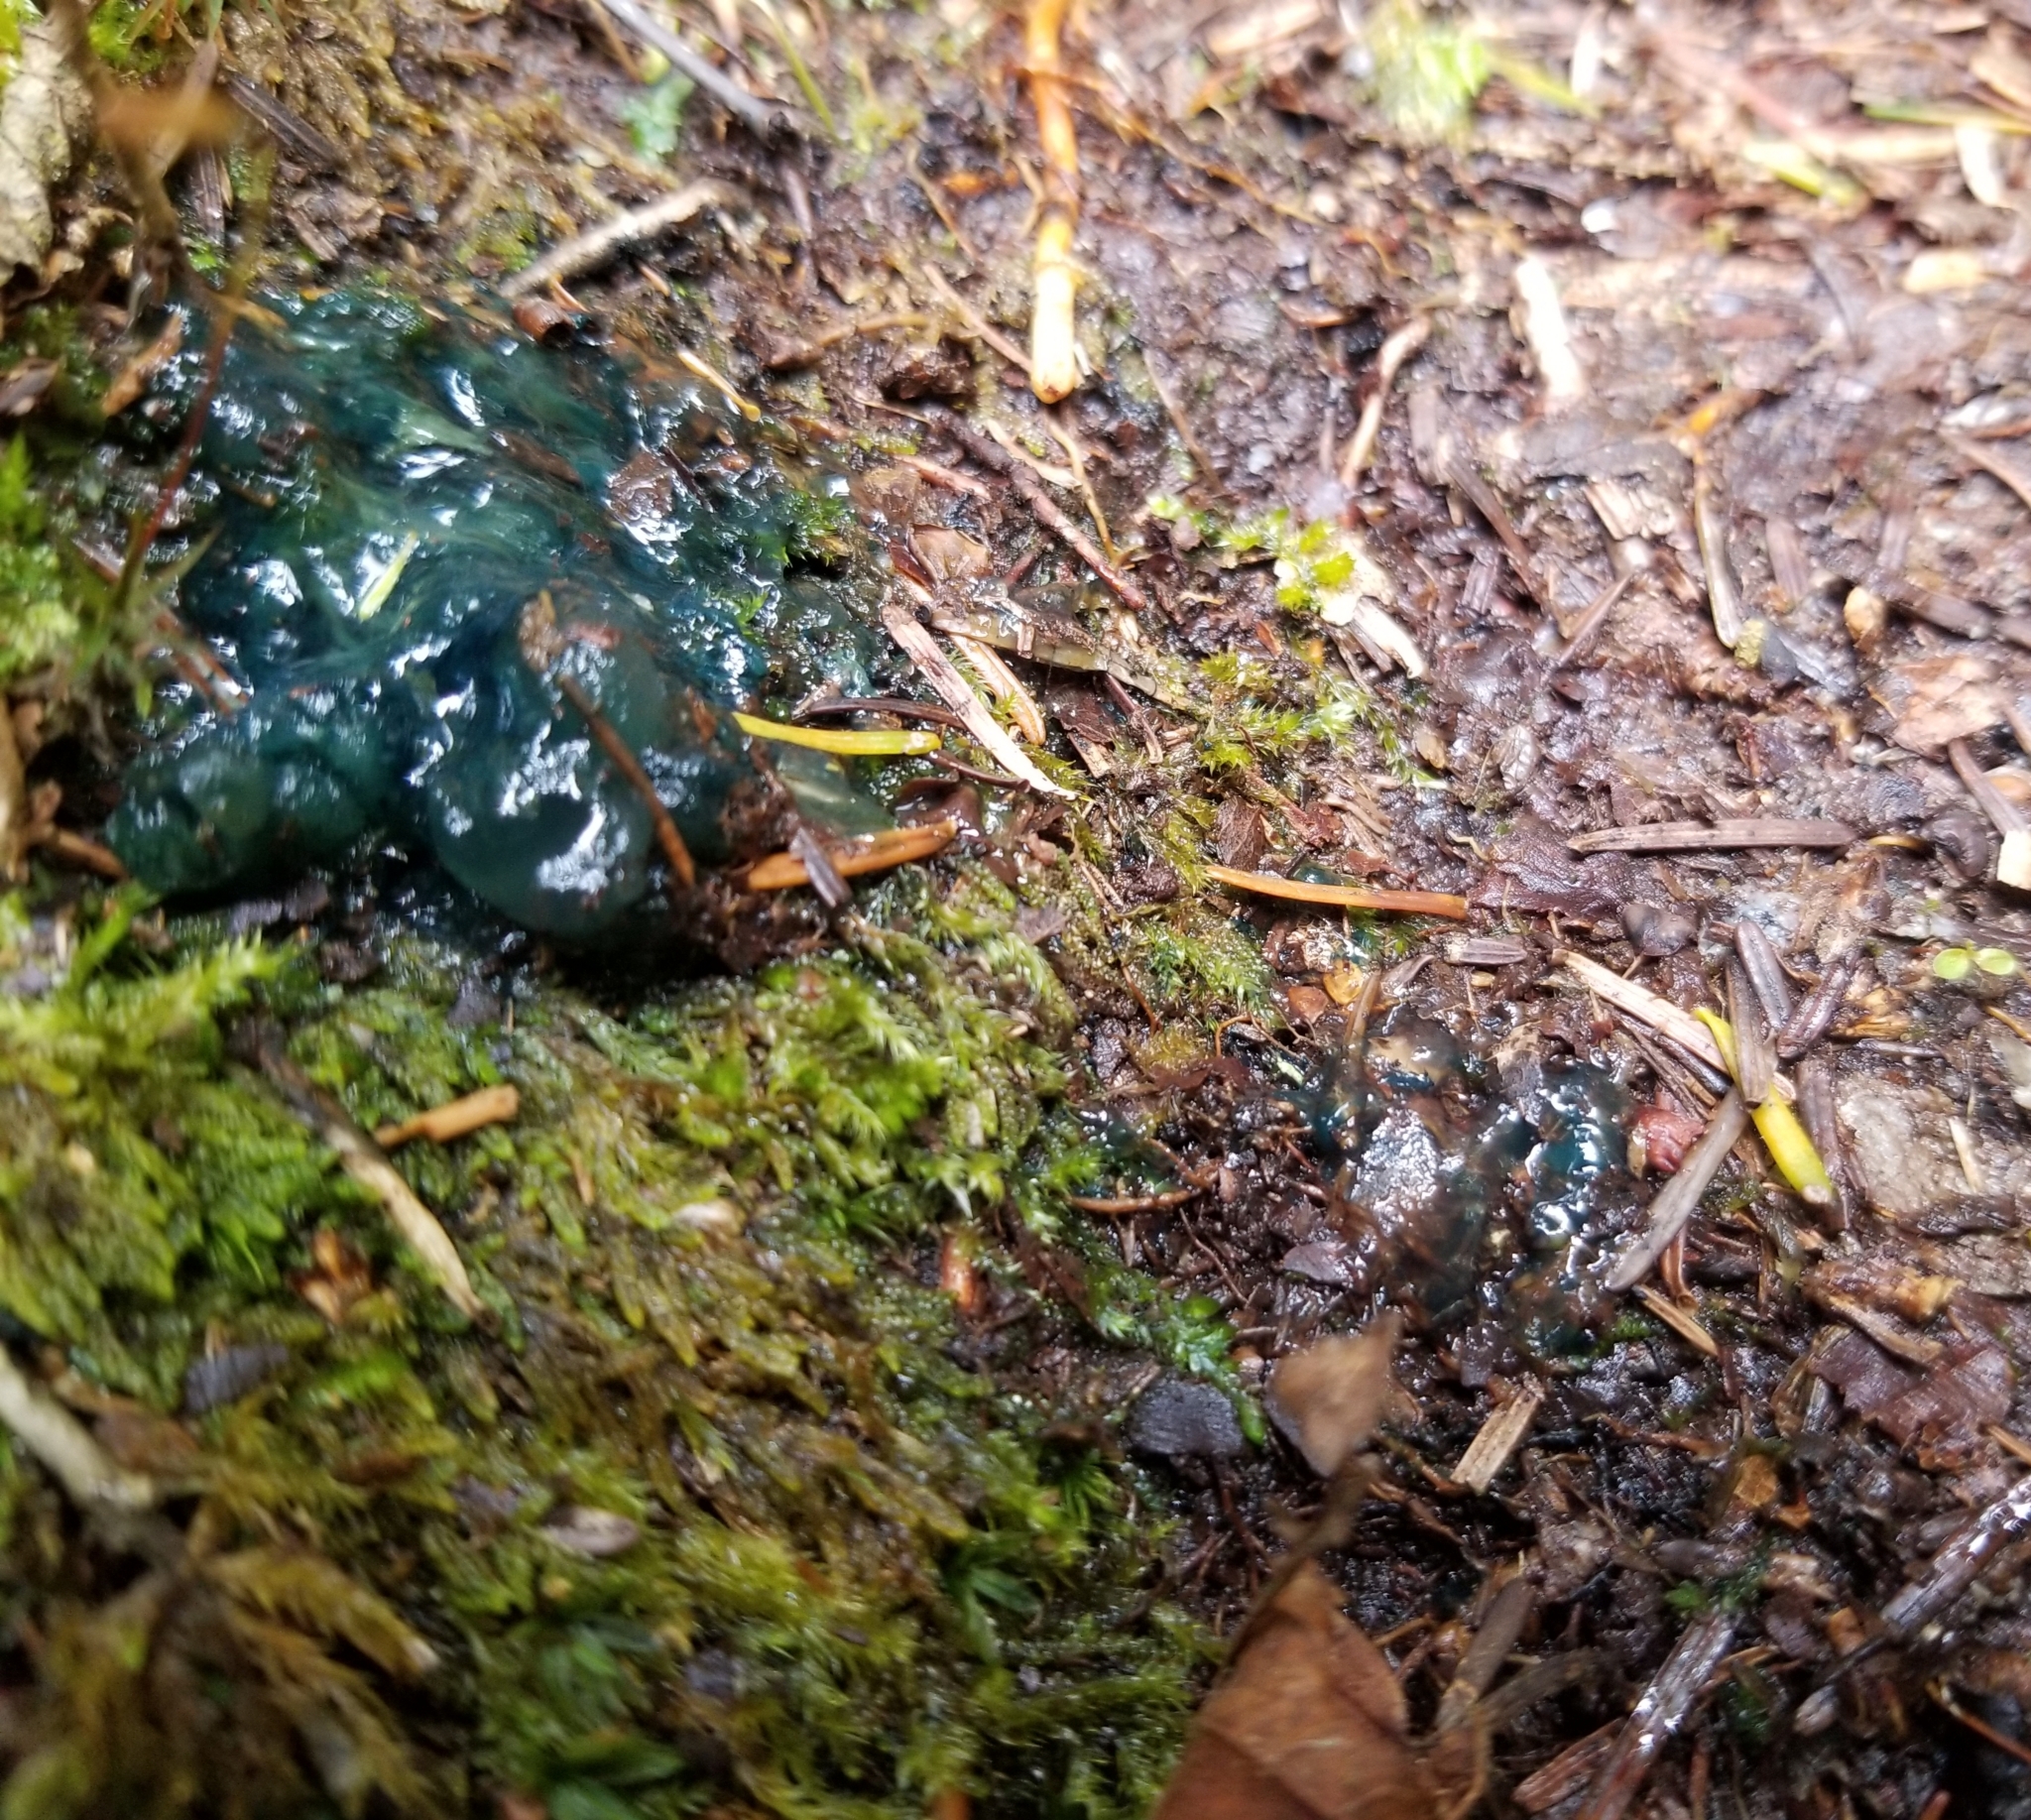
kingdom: Bacteria
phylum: Cyanobacteria
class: Cyanobacteriia
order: Cyanobacteriales
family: Nostocaceae
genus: Nostoc
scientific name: Nostoc commune
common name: Star jelly
